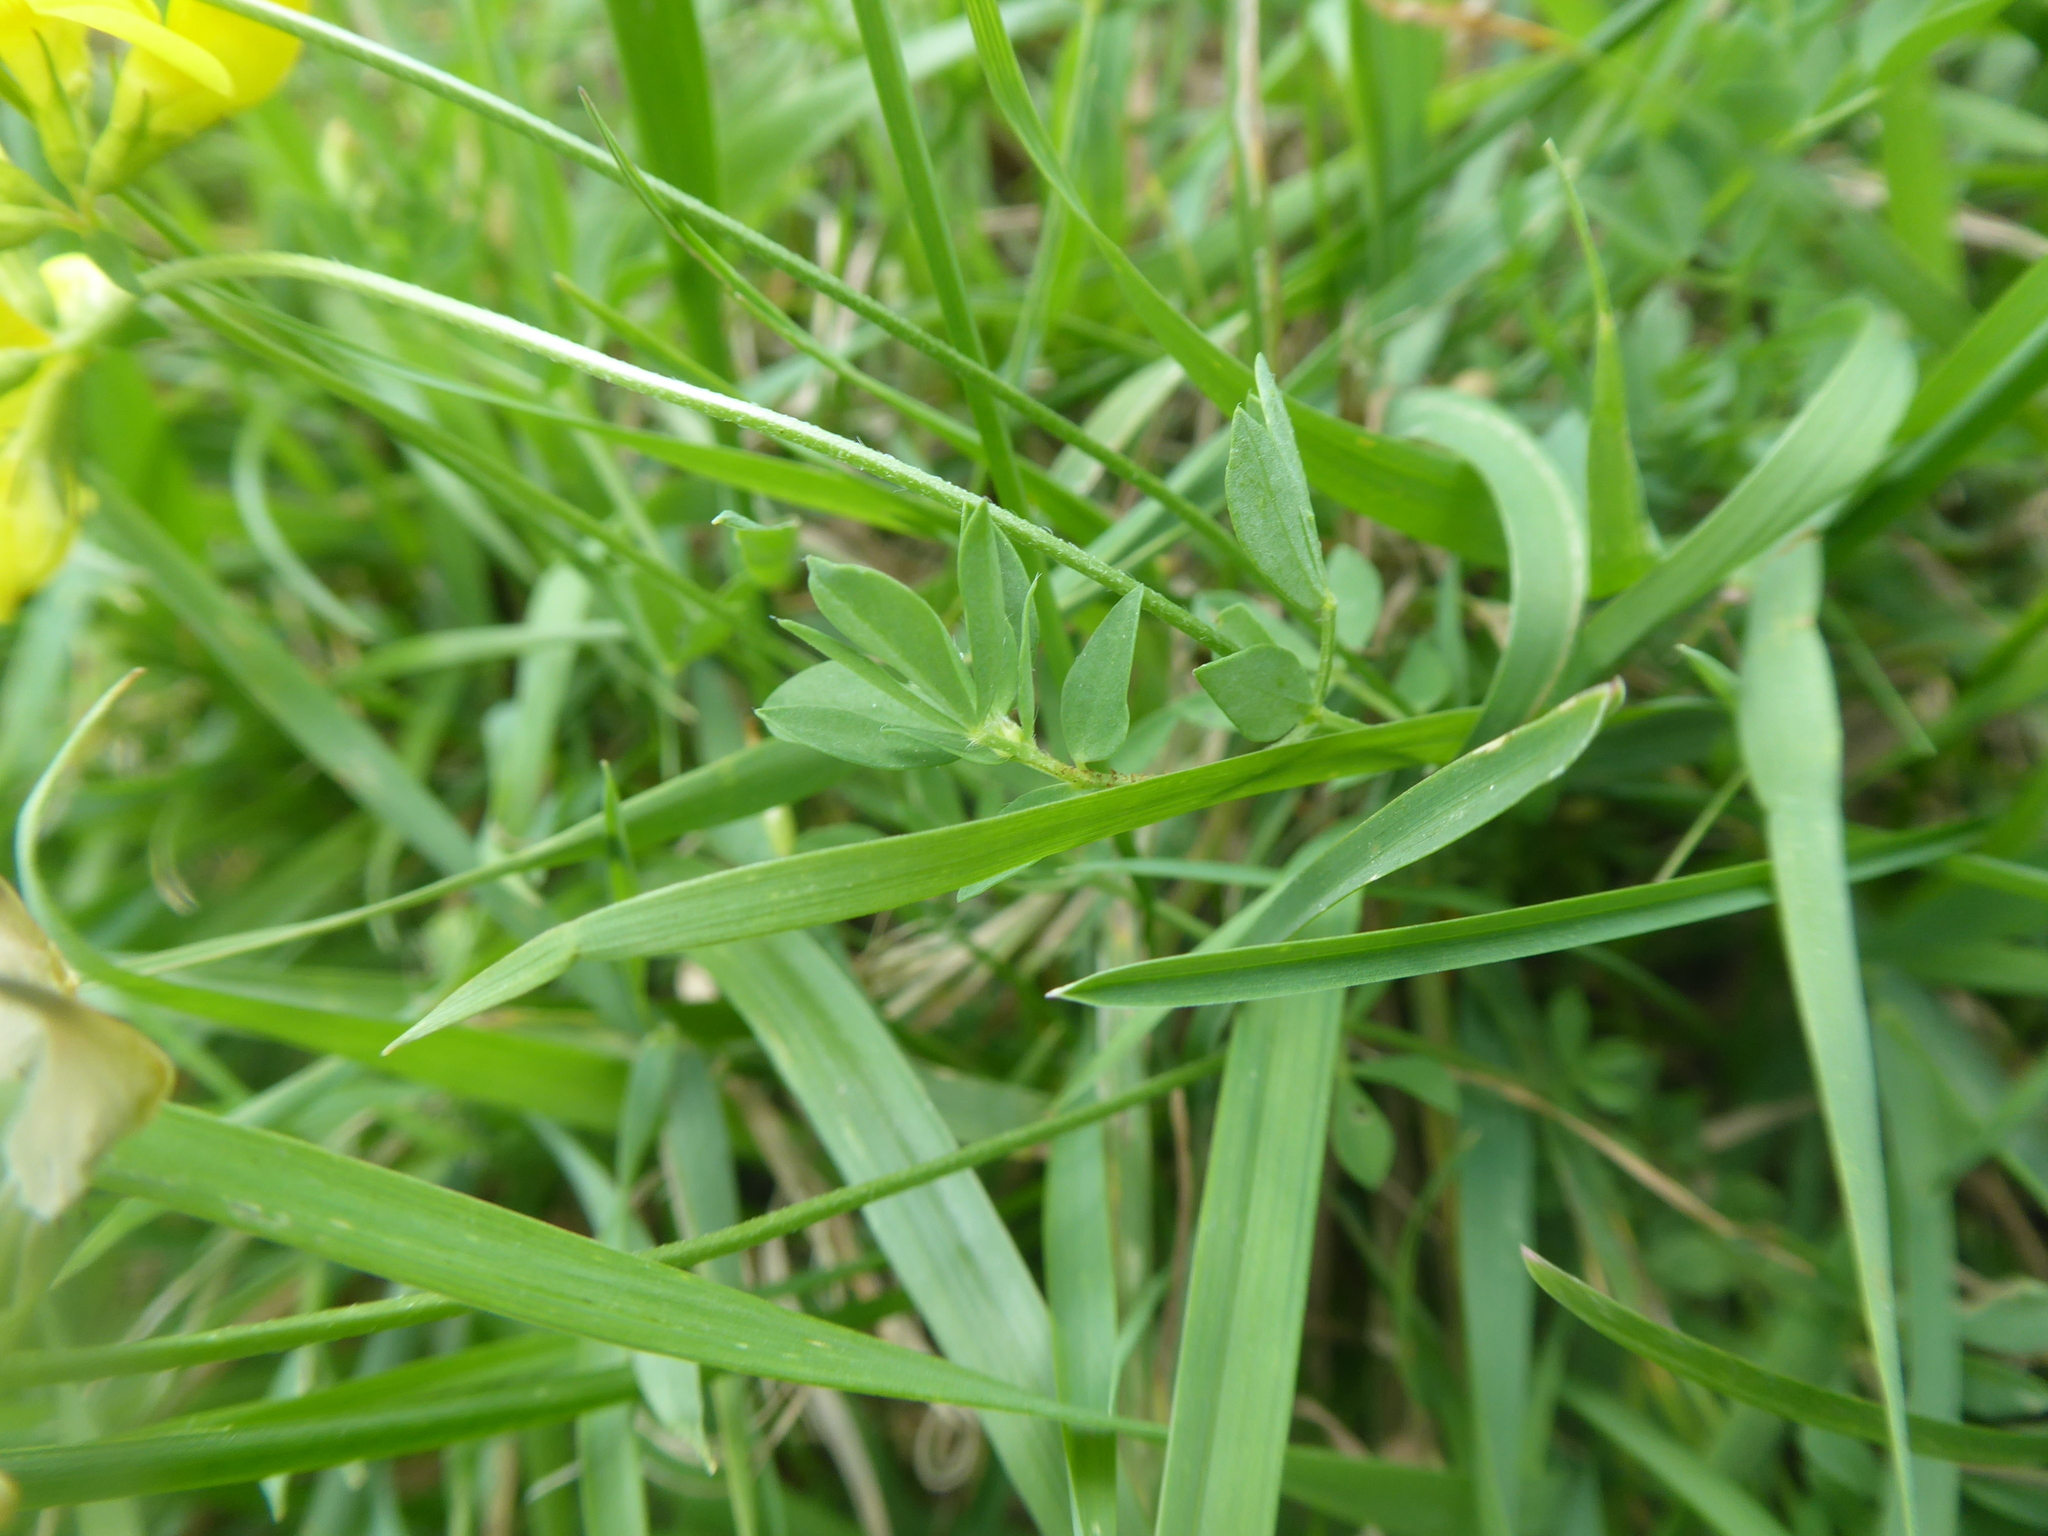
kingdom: Plantae
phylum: Tracheophyta
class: Magnoliopsida
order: Fabales
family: Fabaceae
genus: Lotus
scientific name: Lotus corniculatus
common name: Common bird's-foot-trefoil
